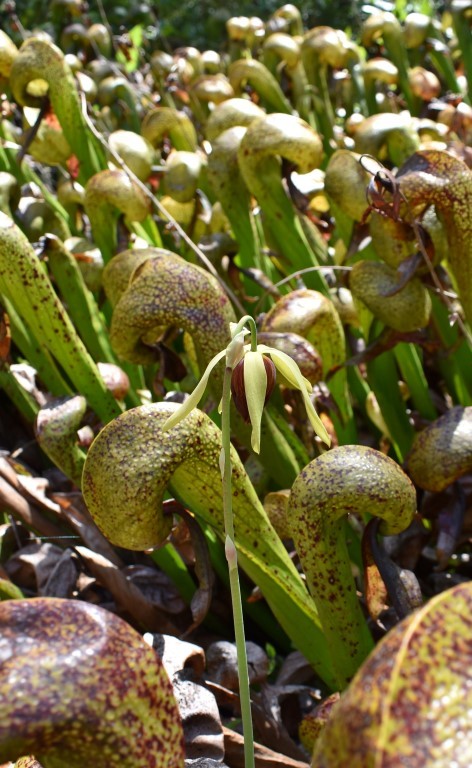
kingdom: Plantae
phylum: Tracheophyta
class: Magnoliopsida
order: Ericales
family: Sarraceniaceae
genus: Darlingtonia
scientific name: Darlingtonia californica
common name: California pitcher plant
